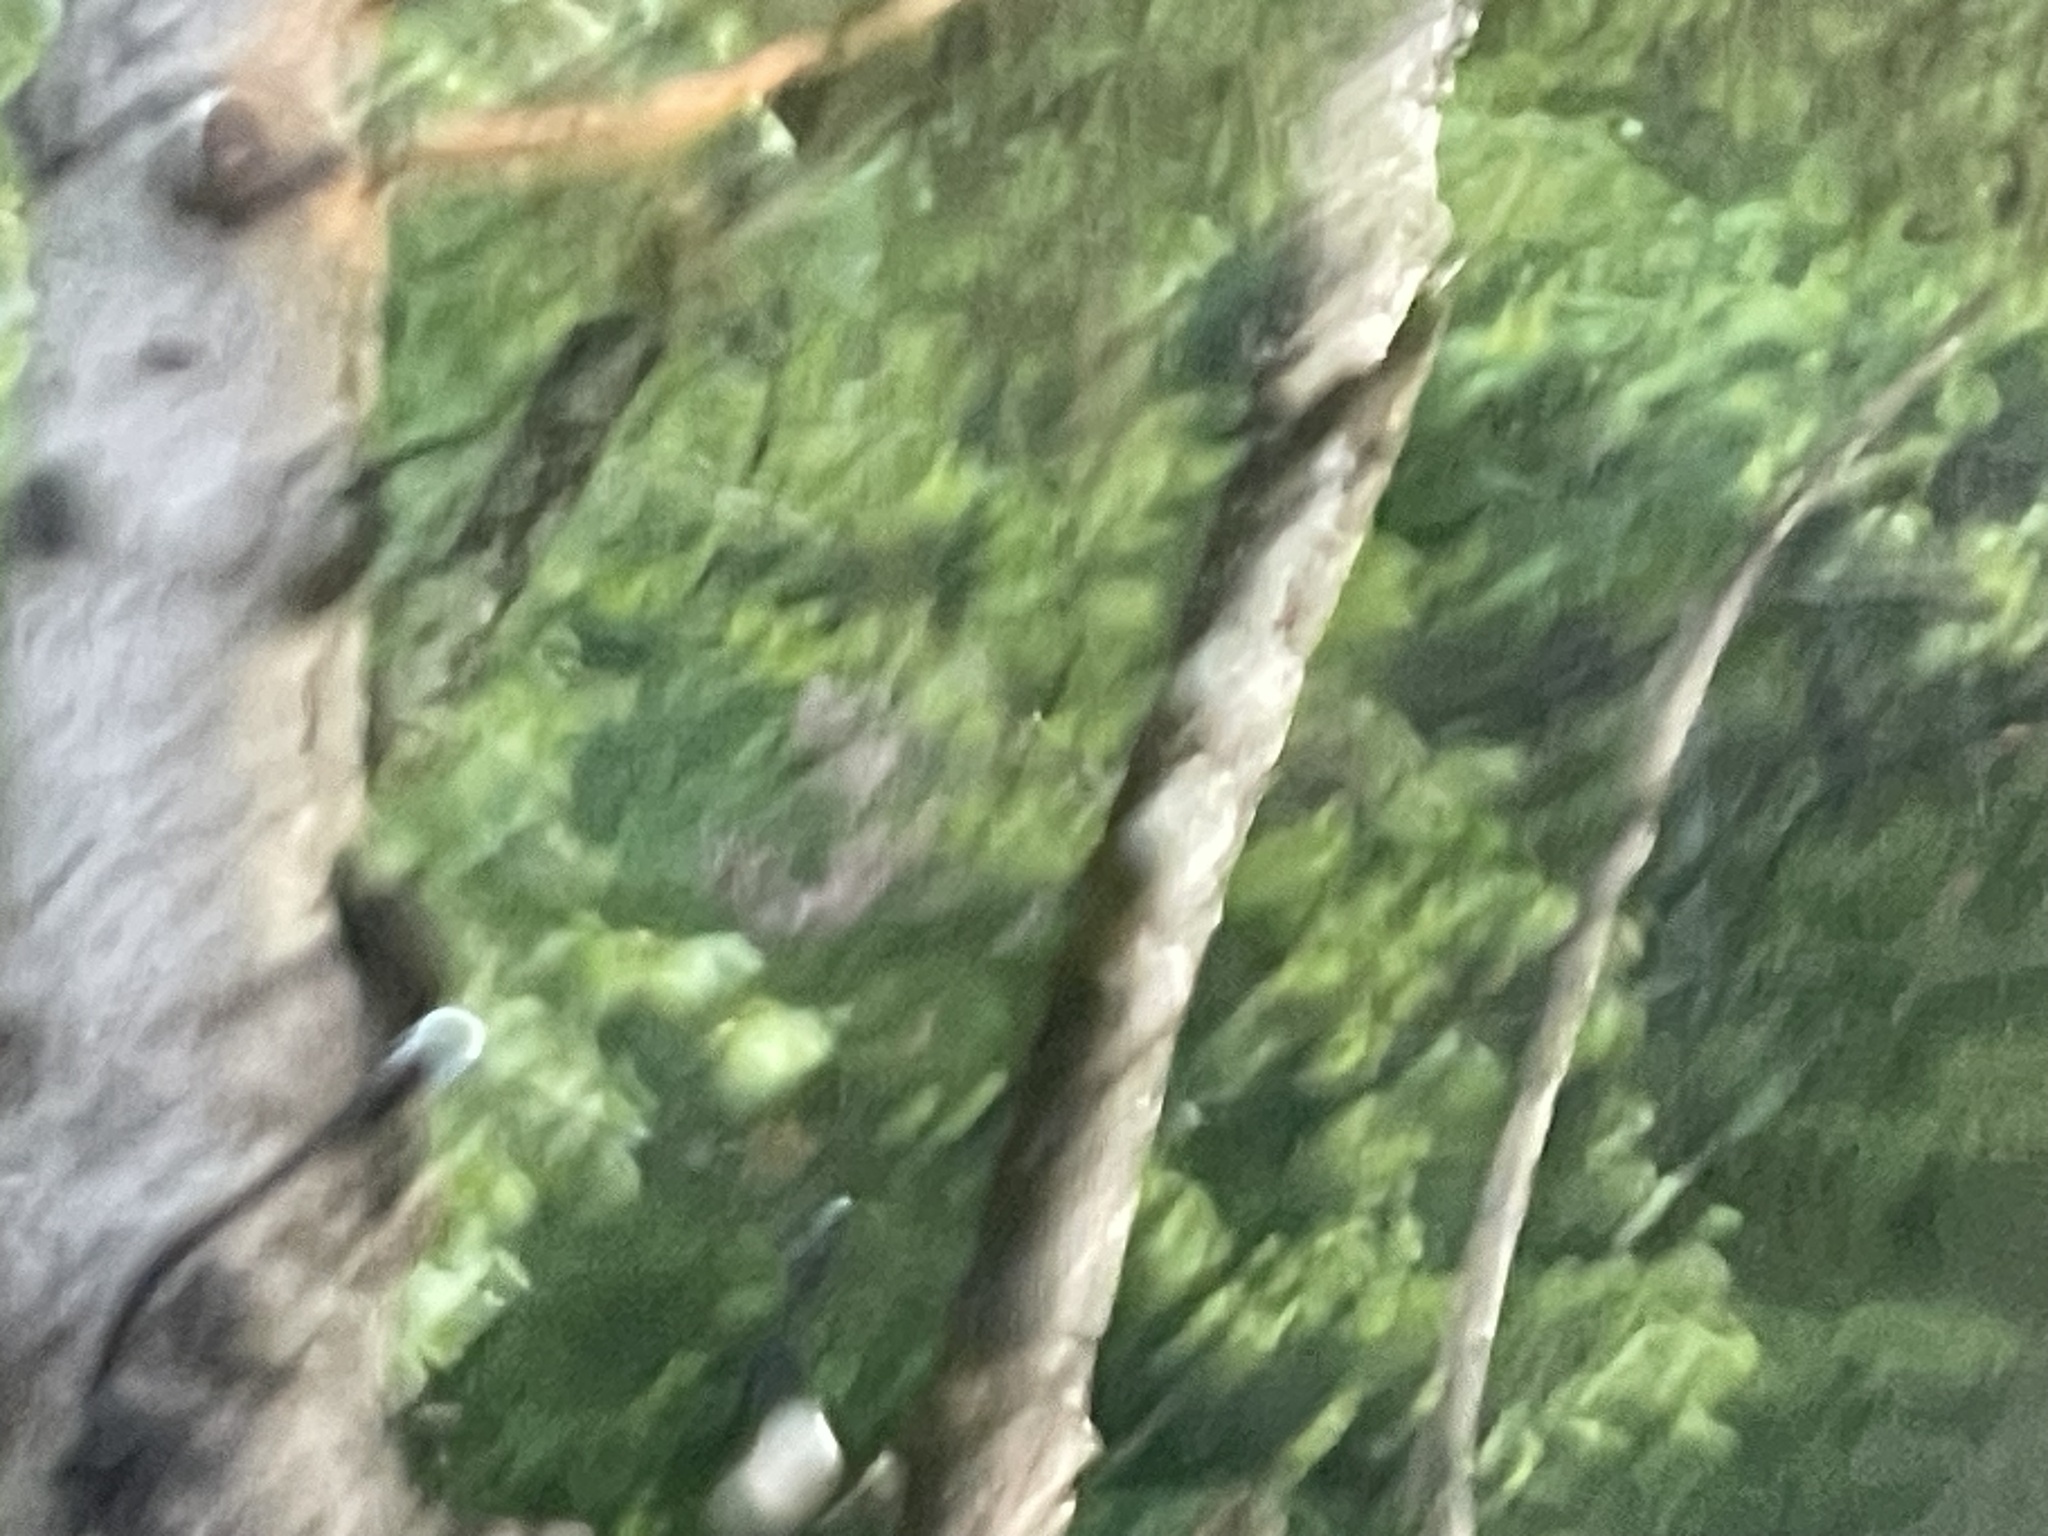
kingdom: Animalia
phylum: Chordata
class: Aves
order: Pelecaniformes
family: Ardeidae
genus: Ardea
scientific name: Ardea herodias
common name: Great blue heron
